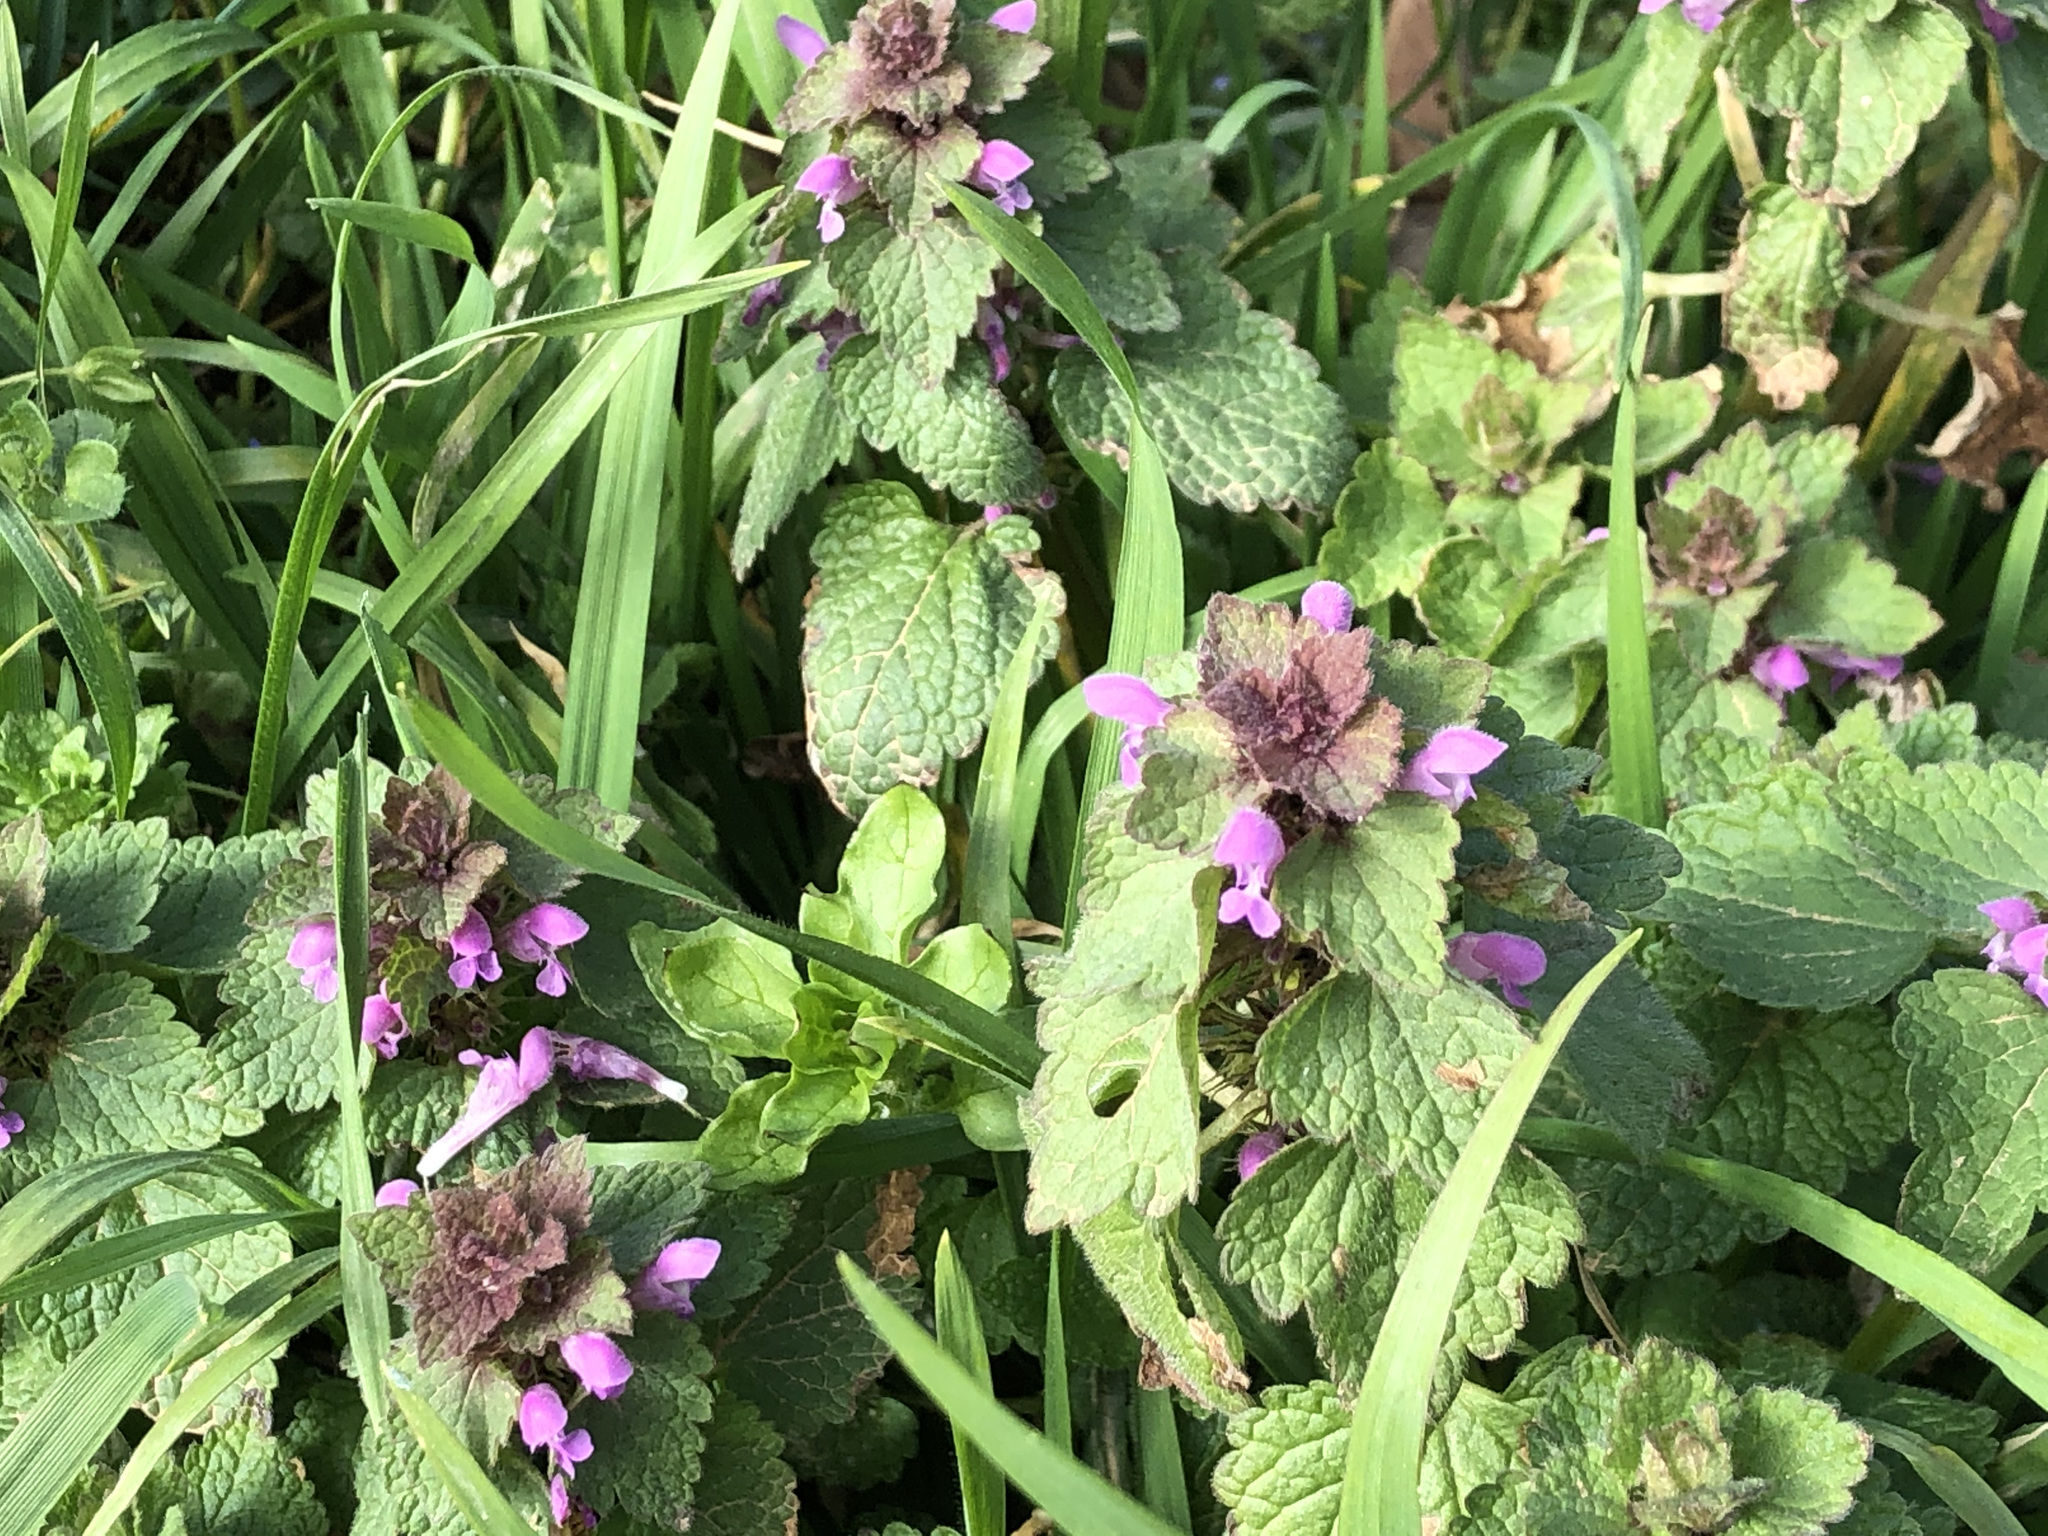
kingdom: Plantae
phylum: Tracheophyta
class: Magnoliopsida
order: Lamiales
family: Lamiaceae
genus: Lamium
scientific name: Lamium purpureum
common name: Red dead-nettle
